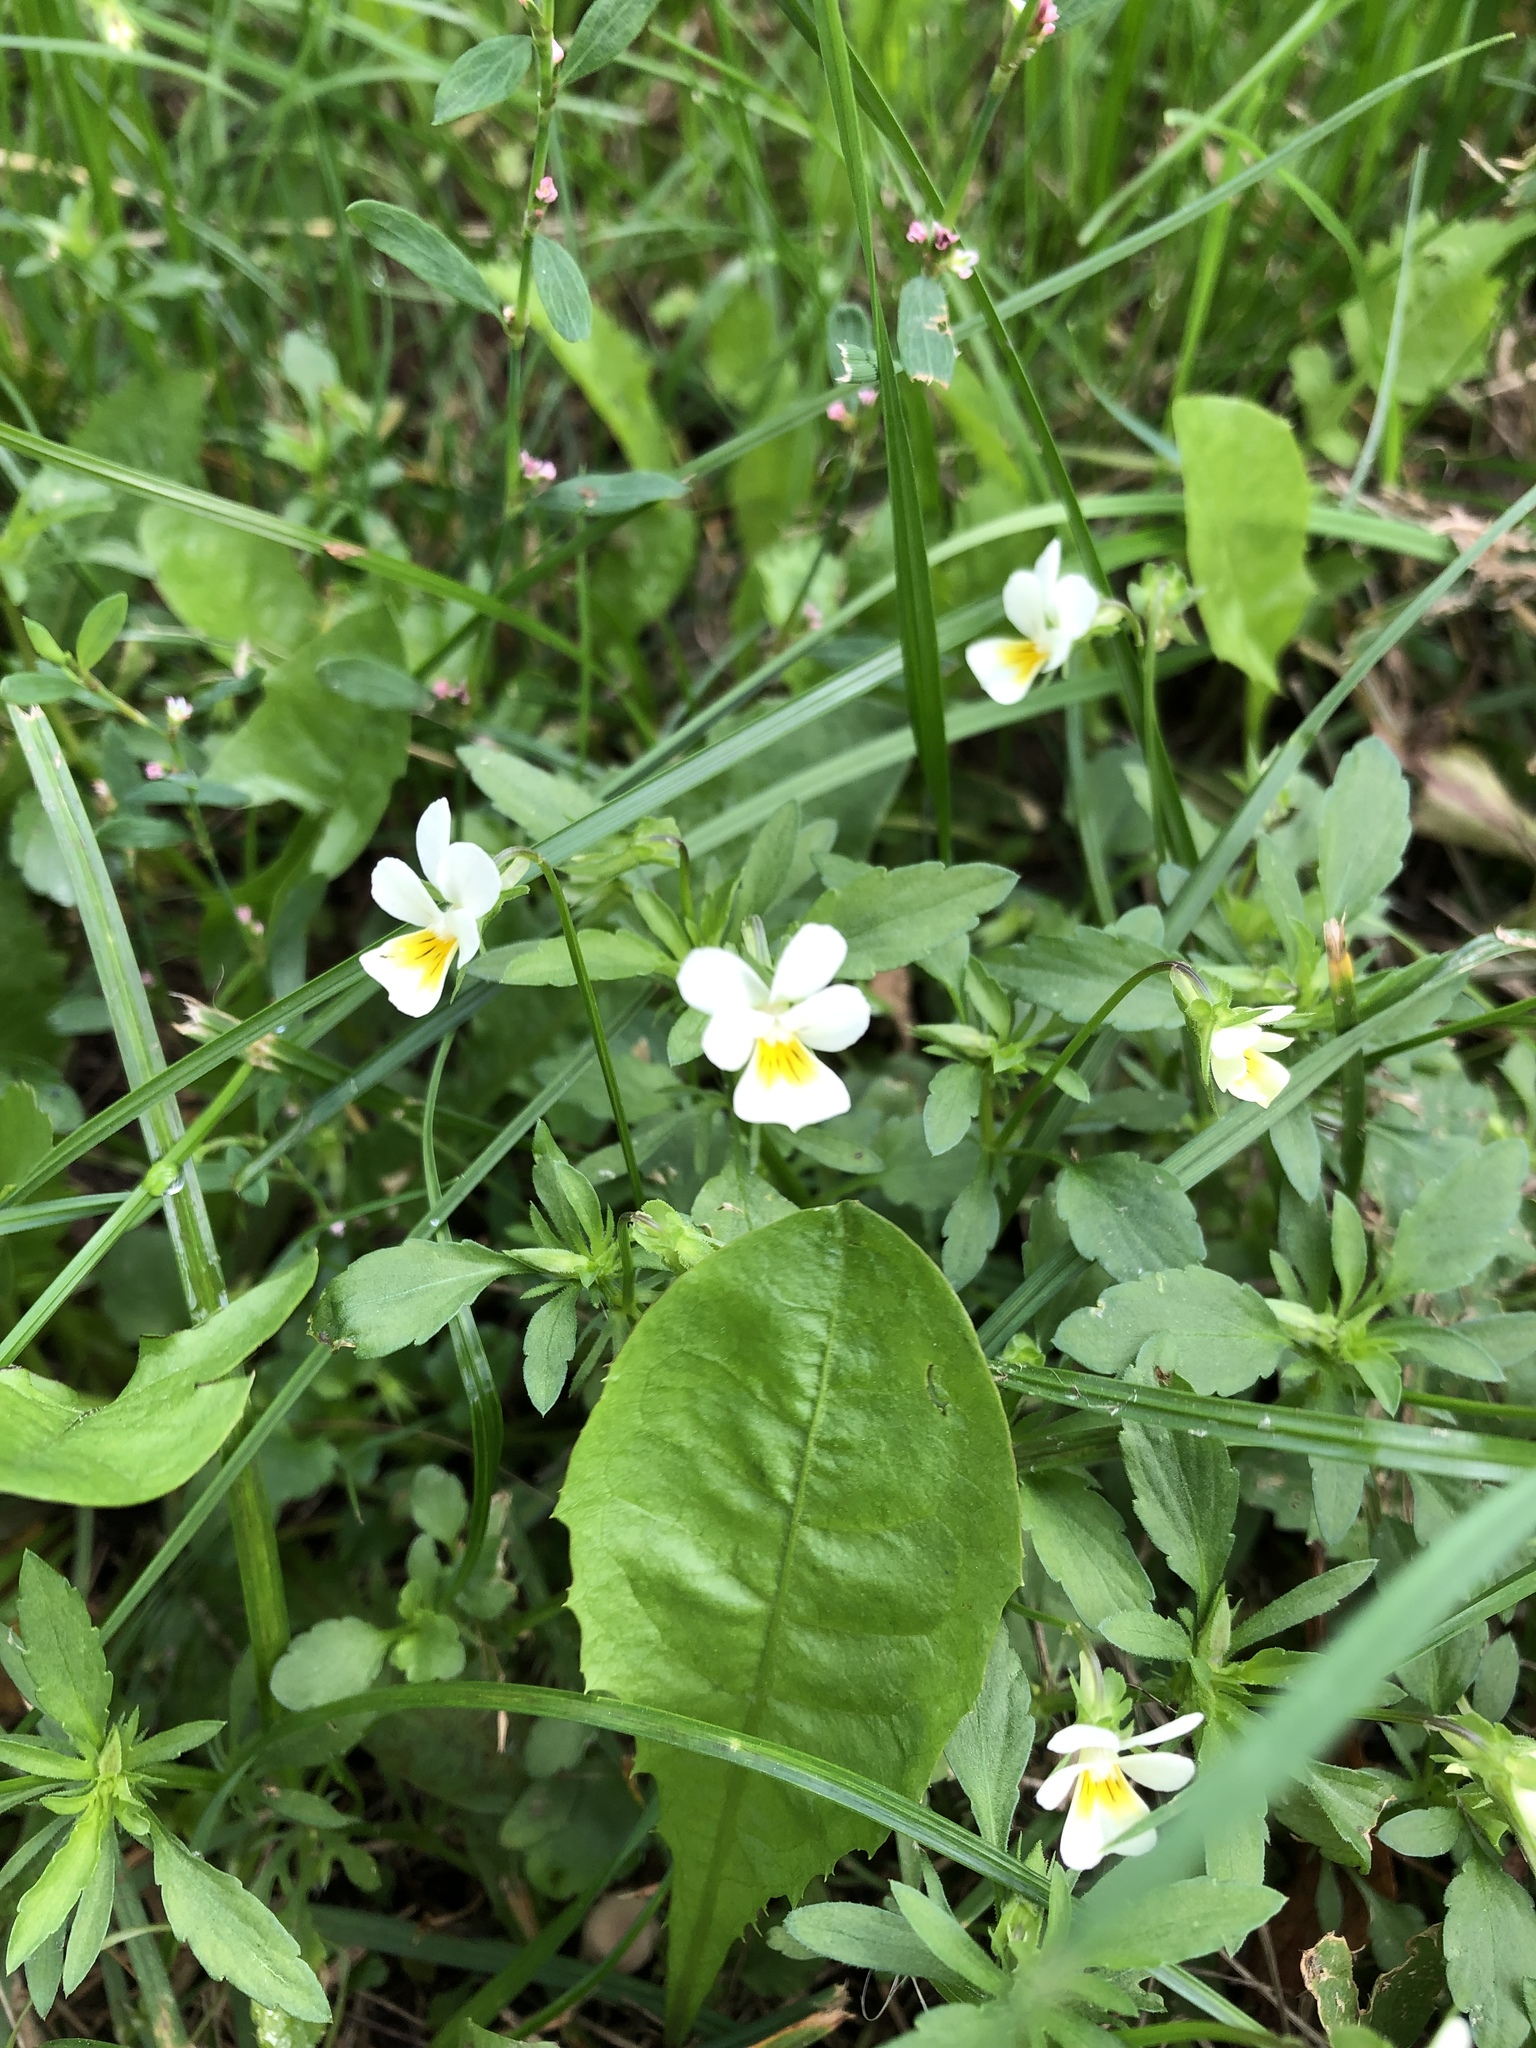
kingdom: Plantae
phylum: Tracheophyta
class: Magnoliopsida
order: Malpighiales
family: Violaceae
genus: Viola
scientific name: Viola arvensis
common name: Field pansy
